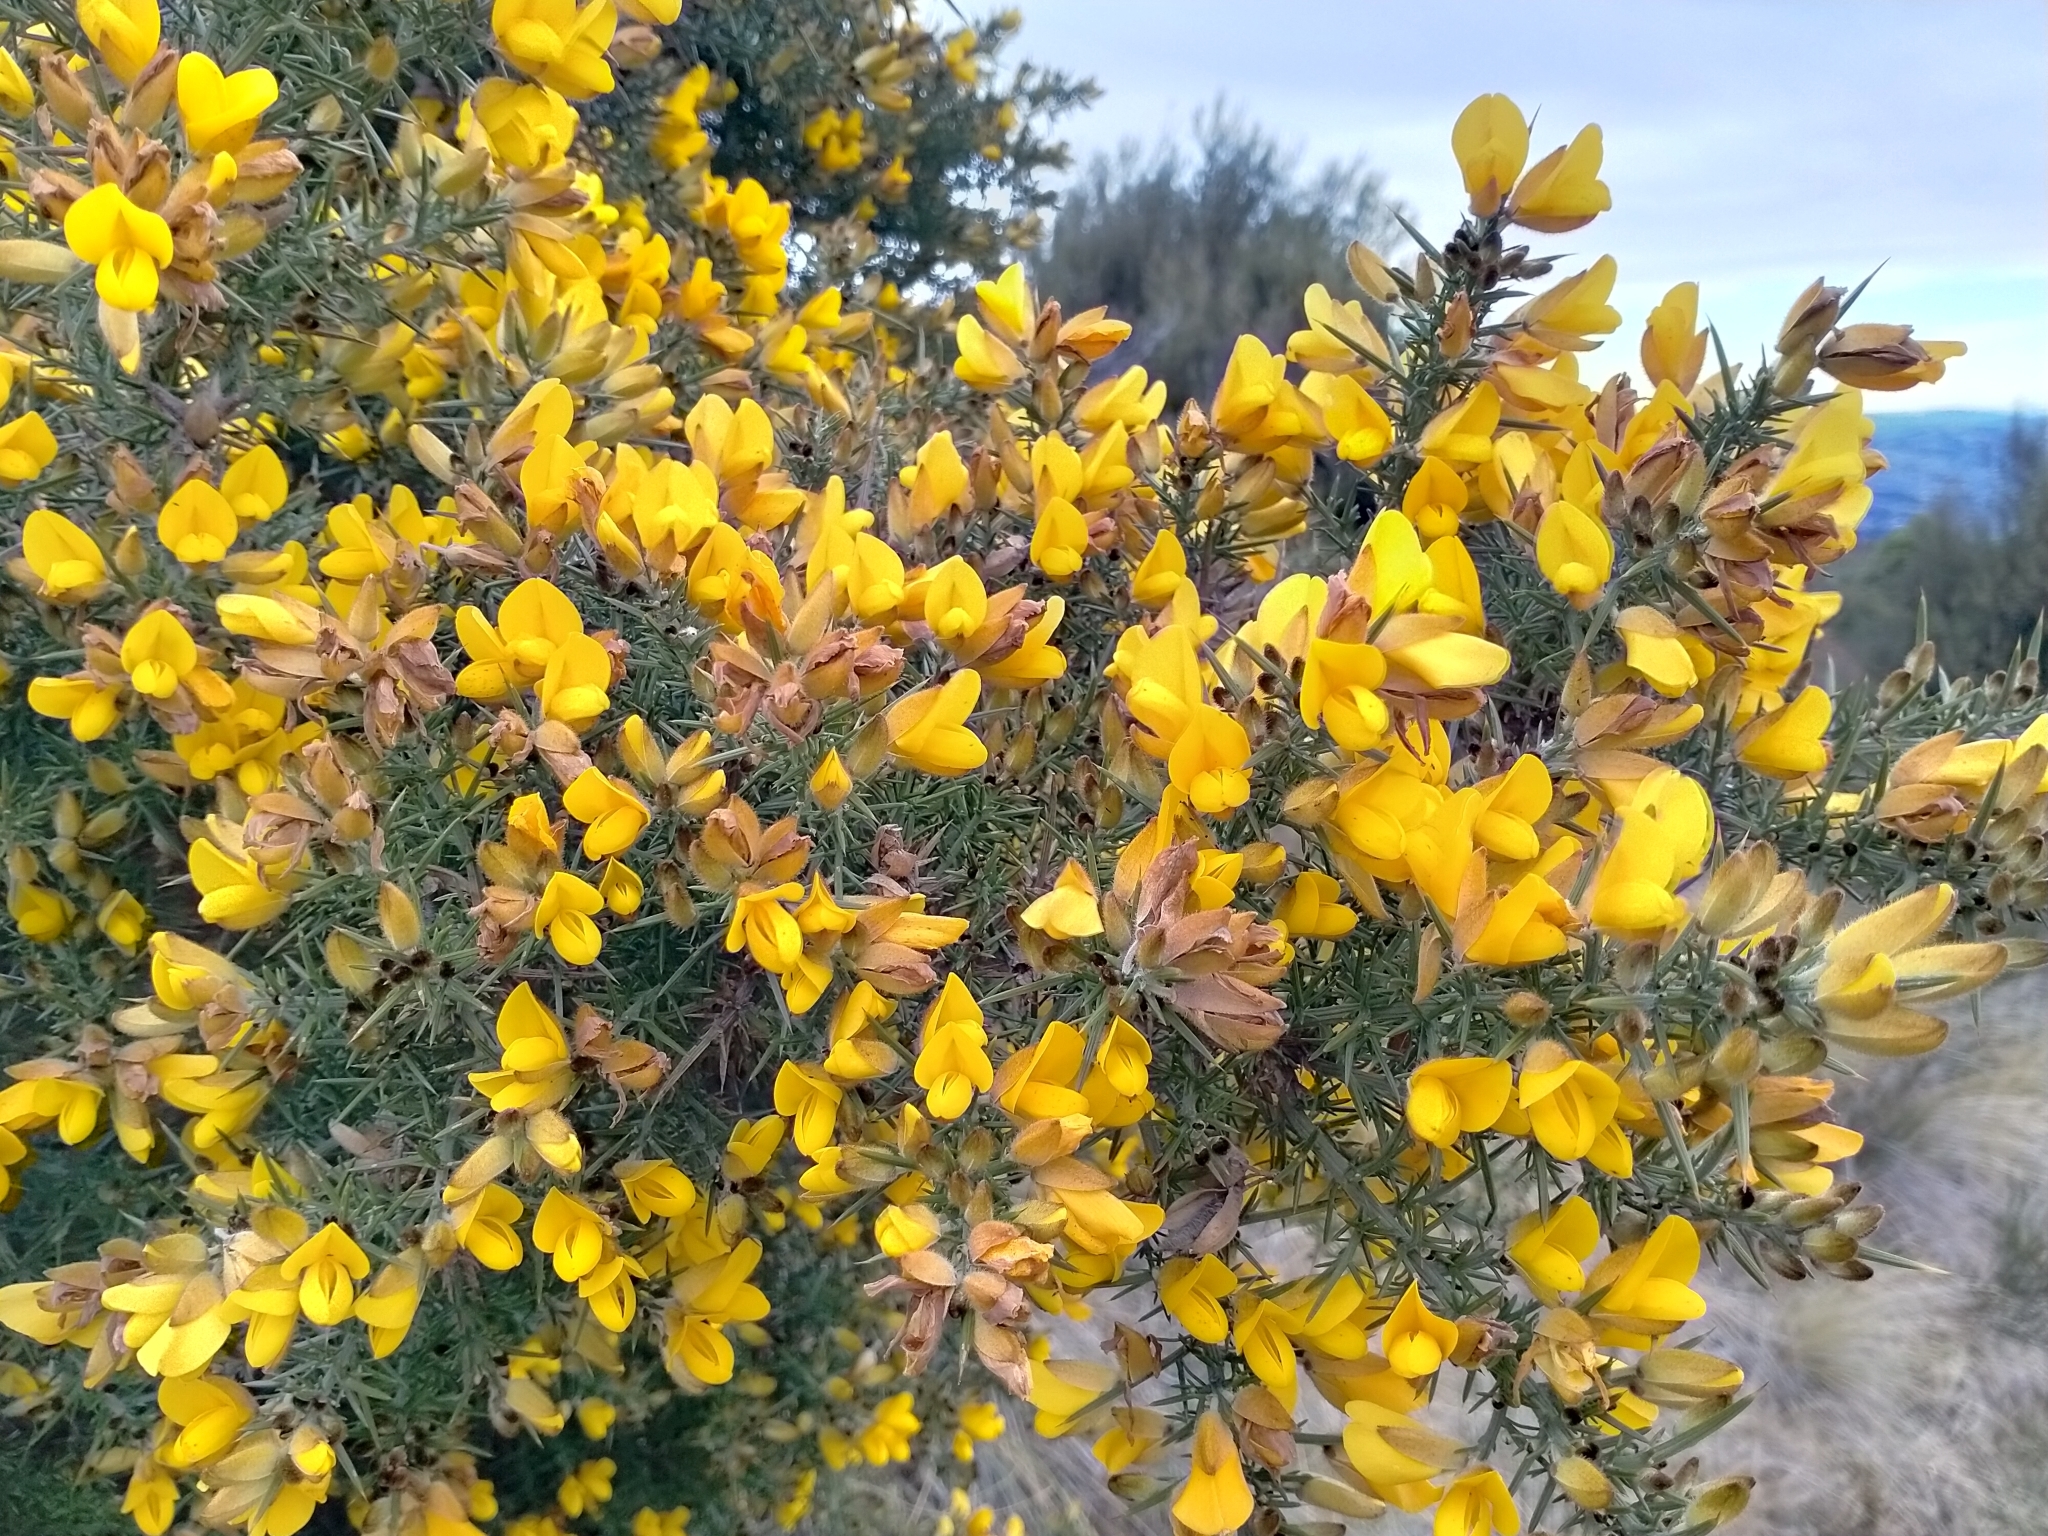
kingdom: Plantae
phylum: Tracheophyta
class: Magnoliopsida
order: Fabales
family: Fabaceae
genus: Ulex
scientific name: Ulex europaeus
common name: Common gorse
